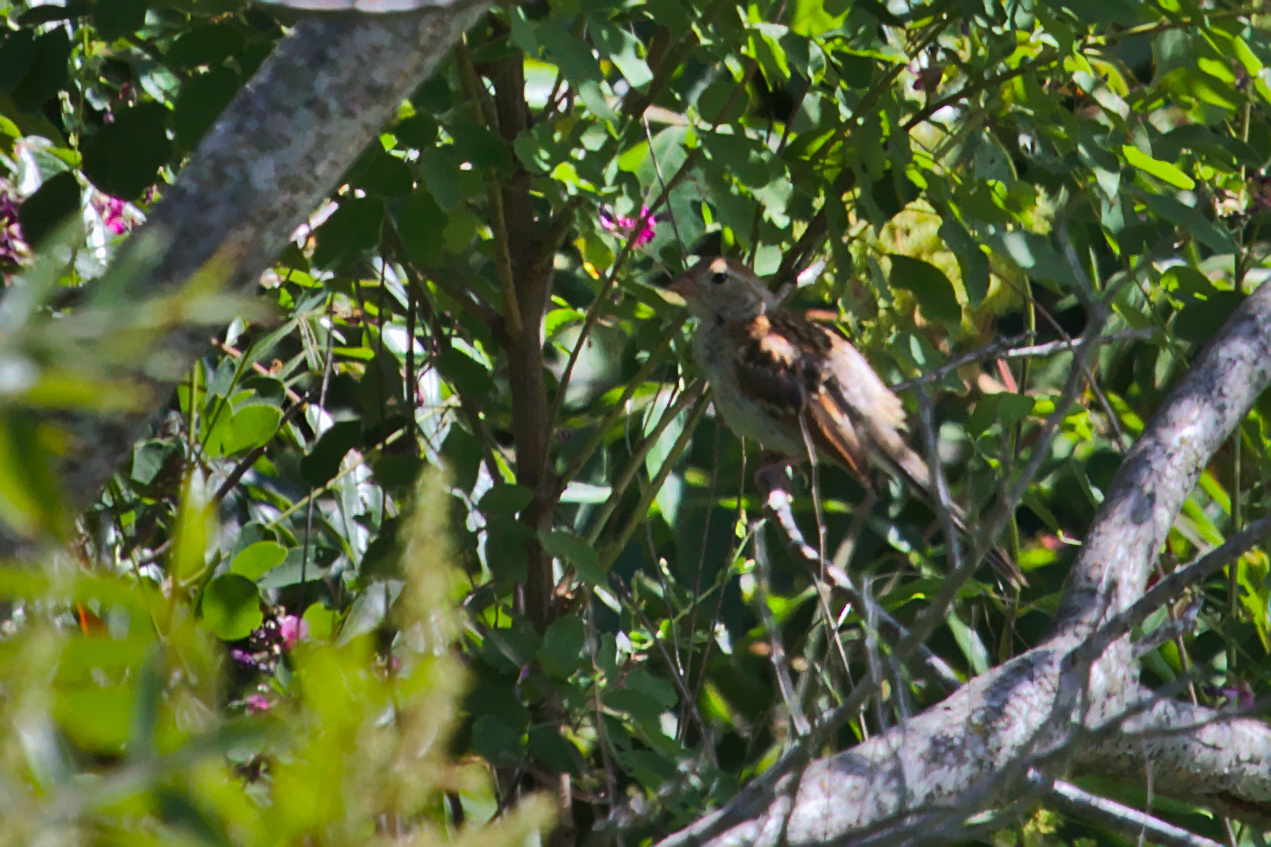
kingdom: Animalia
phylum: Chordata
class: Aves
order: Passeriformes
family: Passerellidae
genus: Spizella
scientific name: Spizella pusilla
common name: Field sparrow
